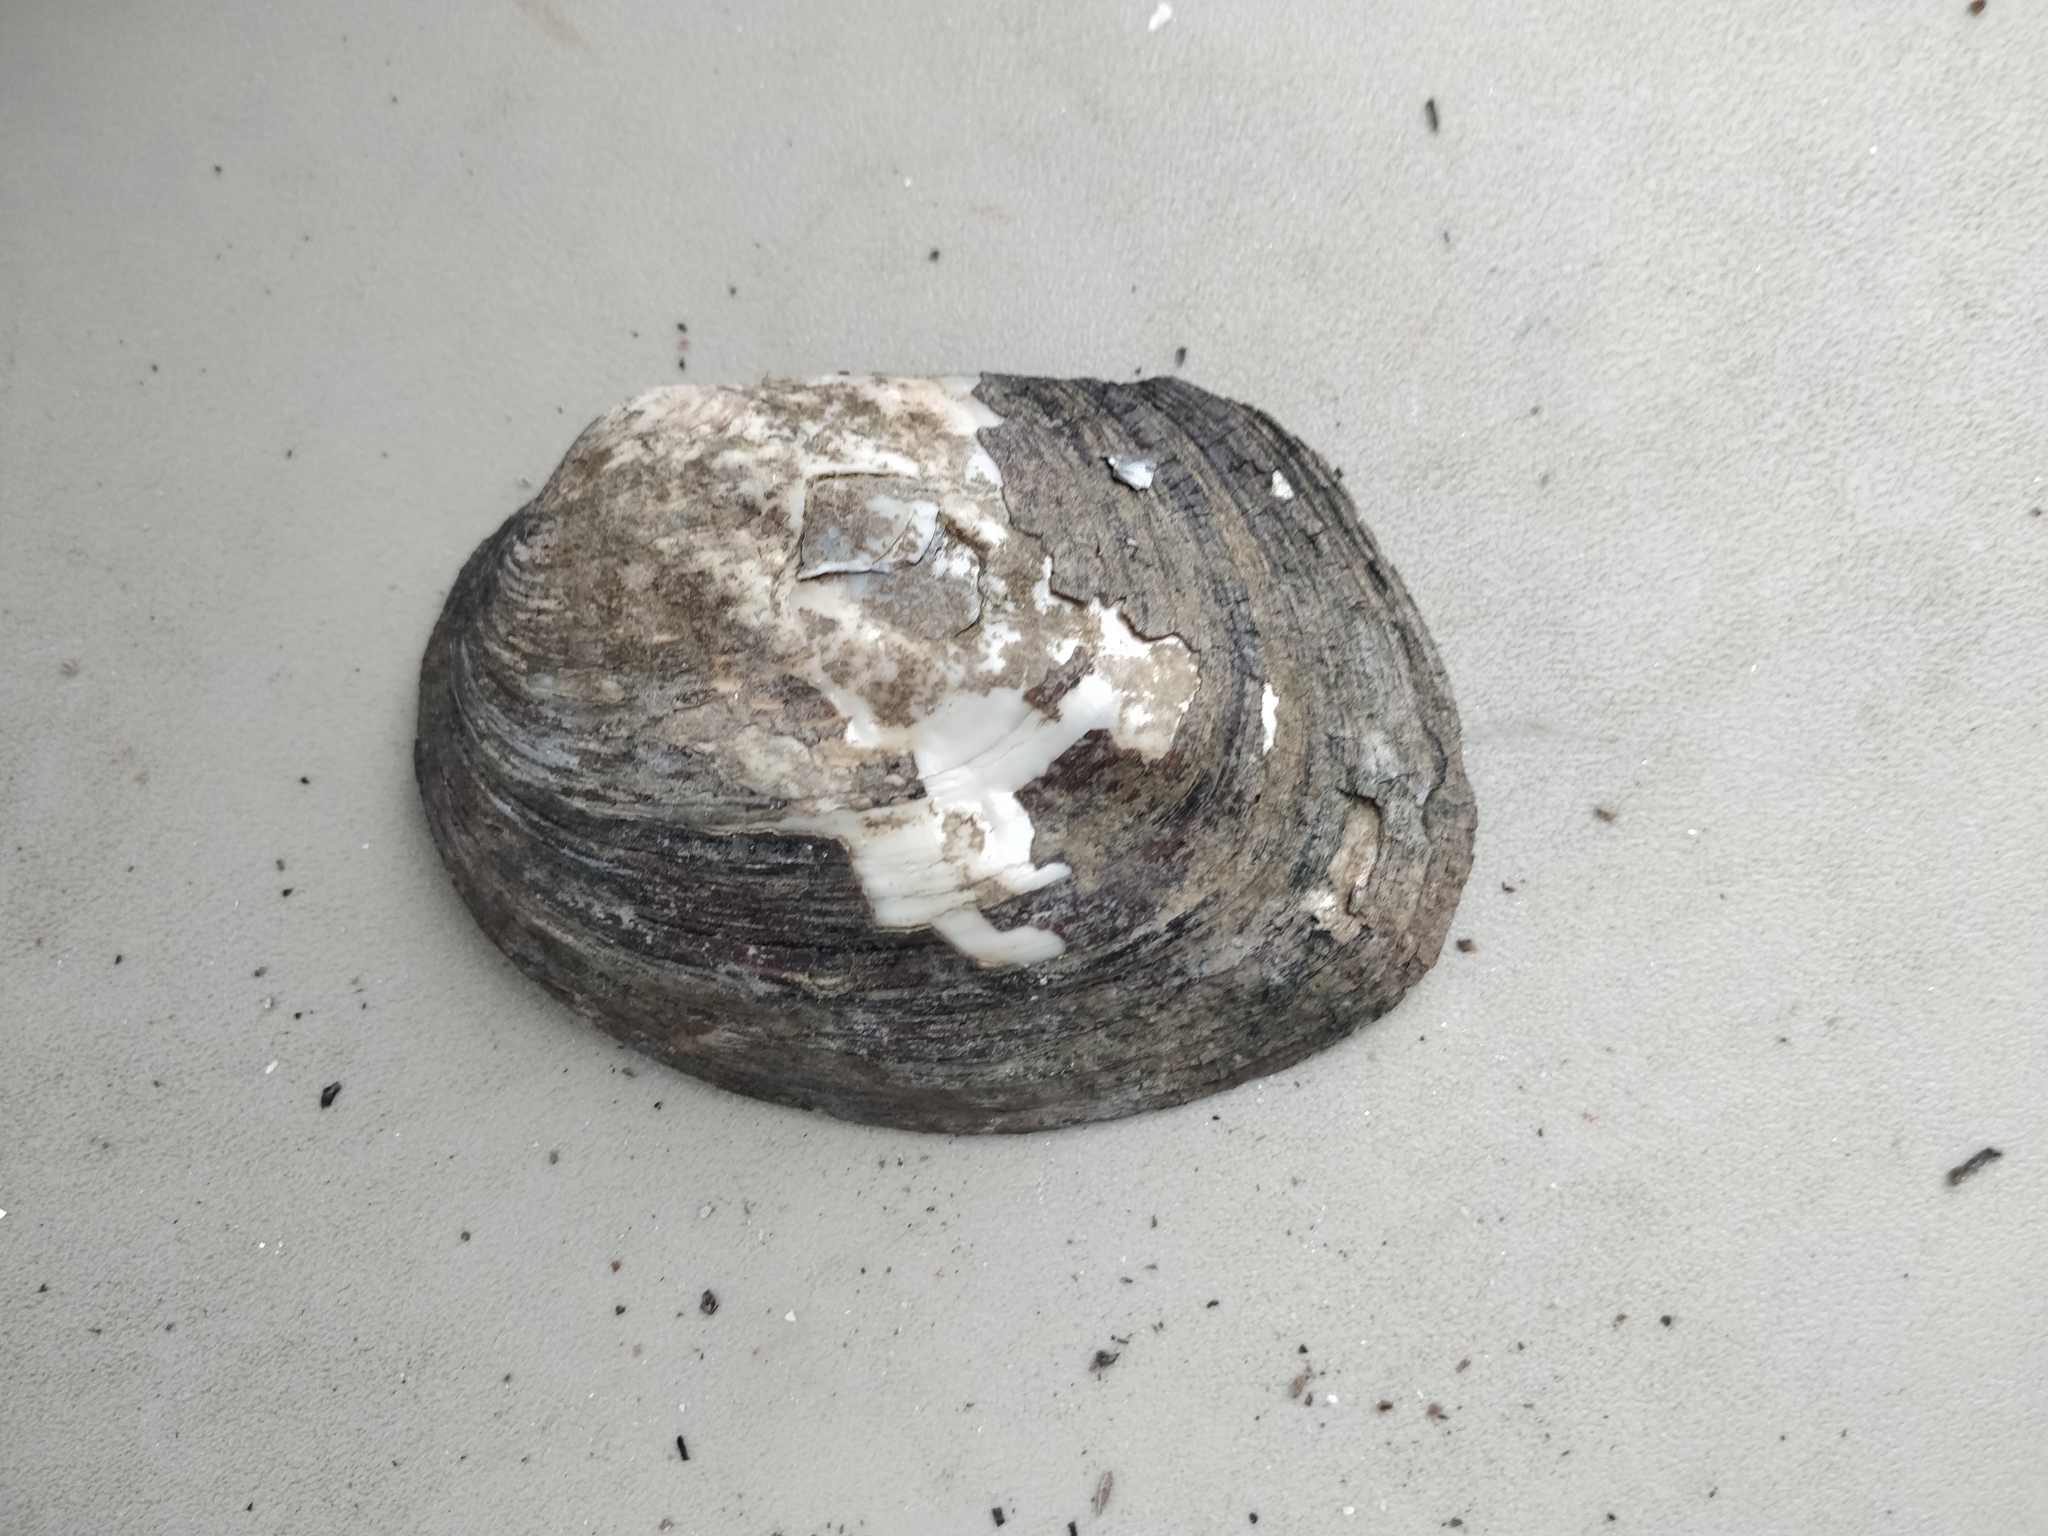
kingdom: Animalia
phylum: Mollusca
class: Bivalvia
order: Unionida
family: Unionidae
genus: Amblema
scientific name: Amblema plicata
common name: Threeridge
